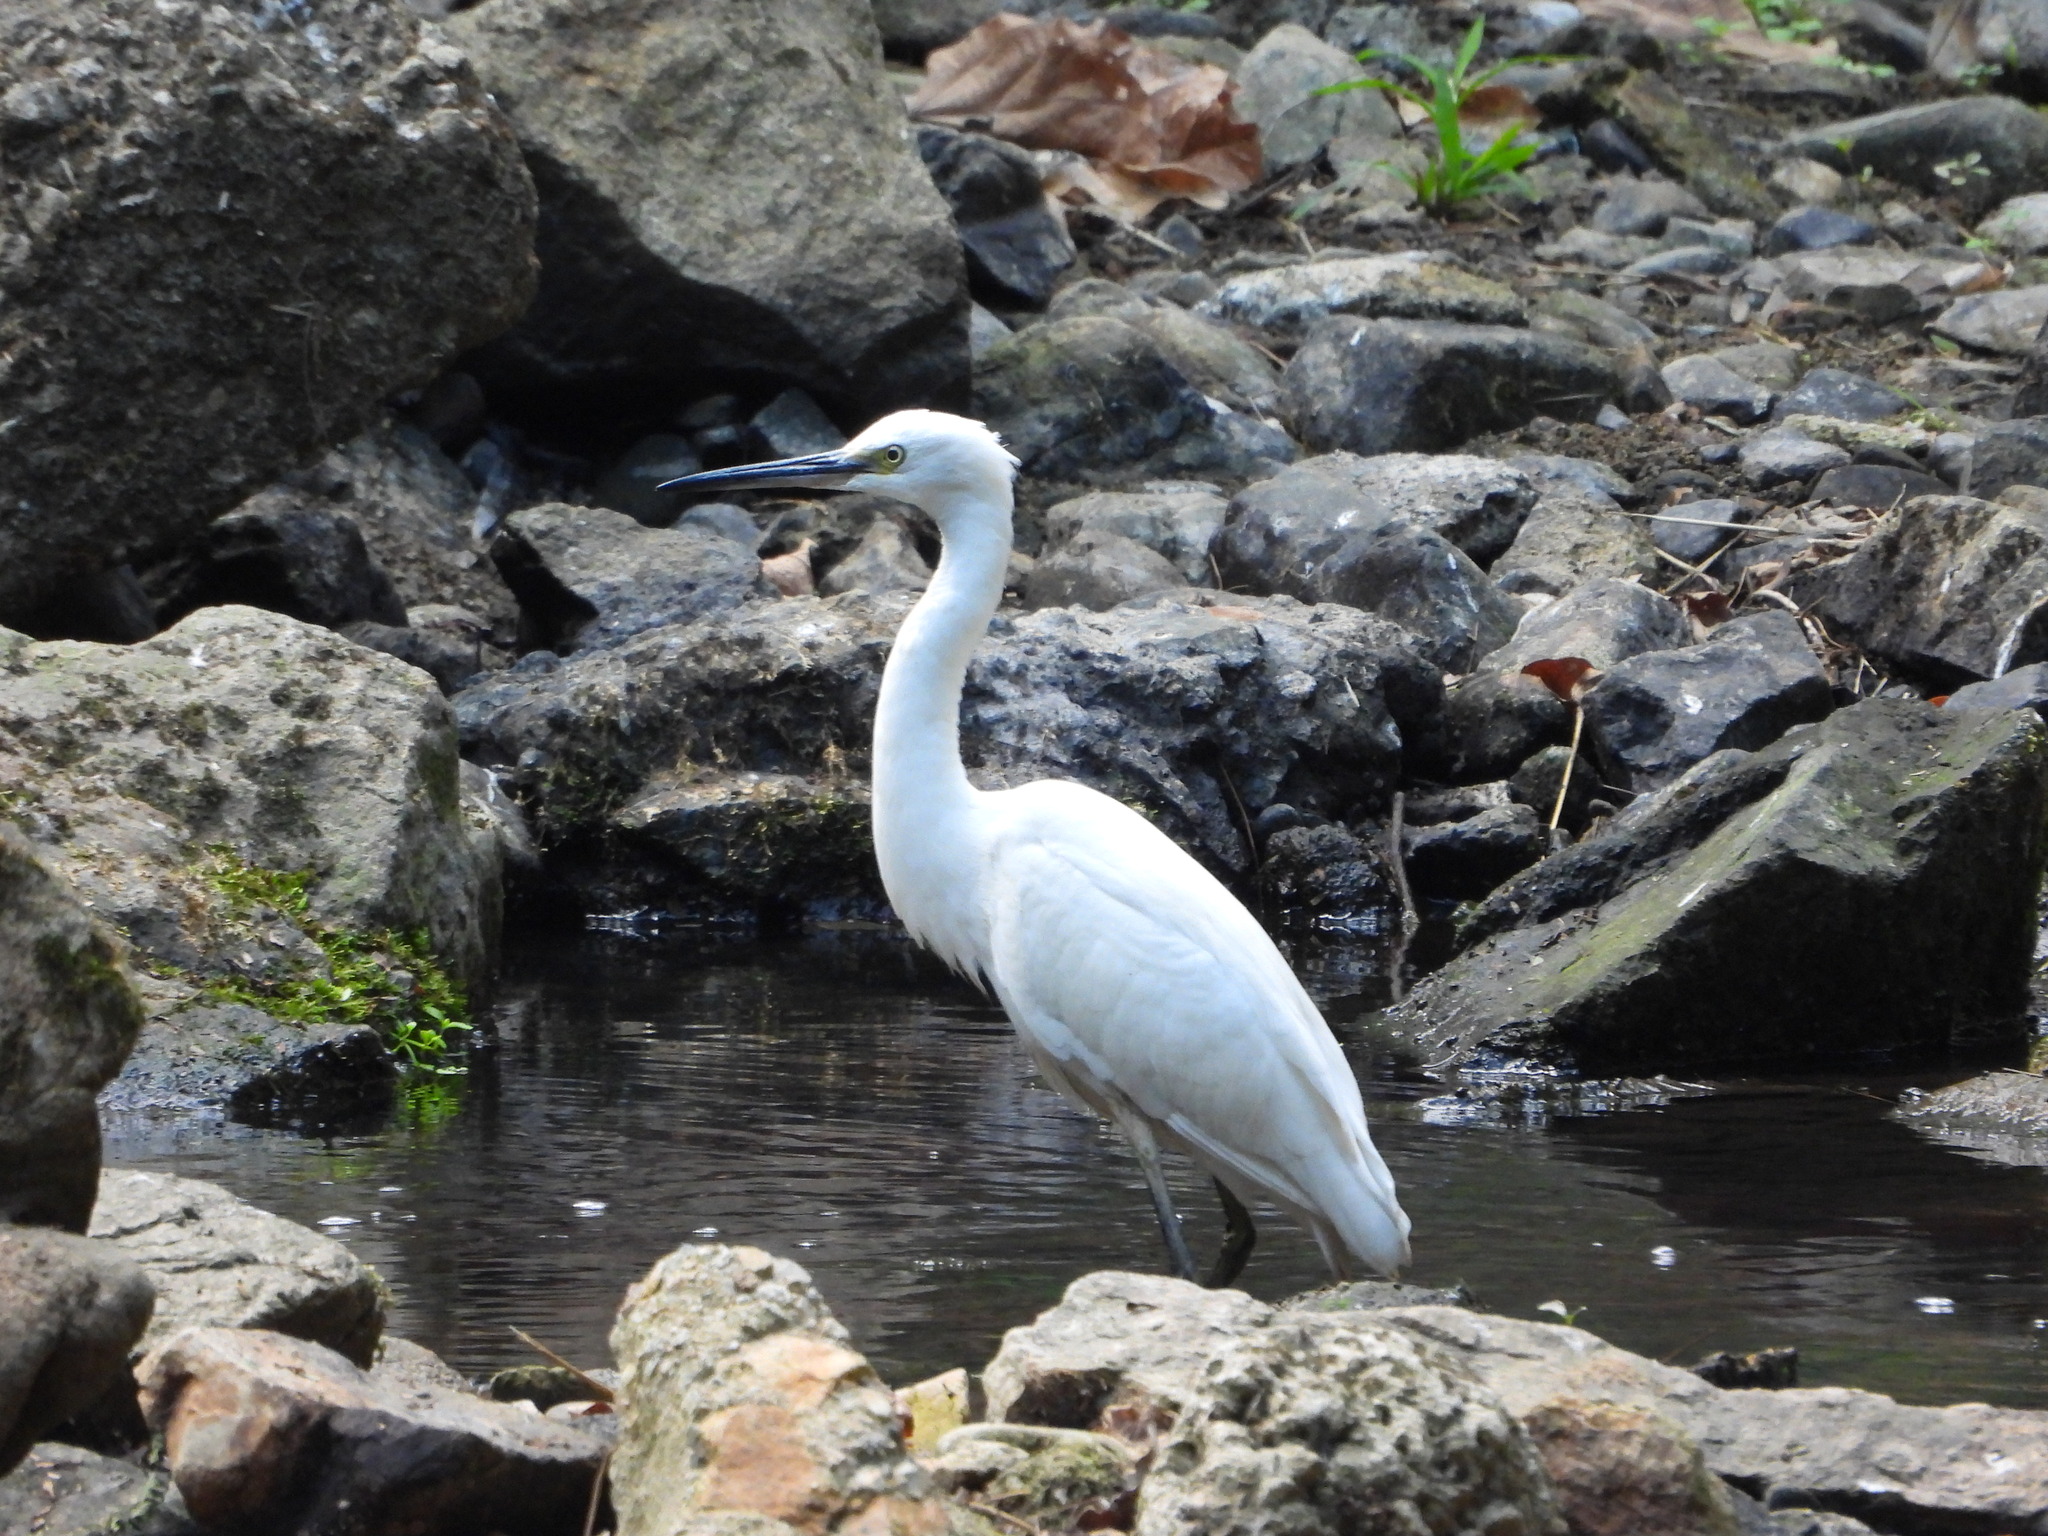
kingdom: Animalia
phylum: Chordata
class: Aves
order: Pelecaniformes
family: Ardeidae
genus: Egretta
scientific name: Egretta garzetta
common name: Little egret
